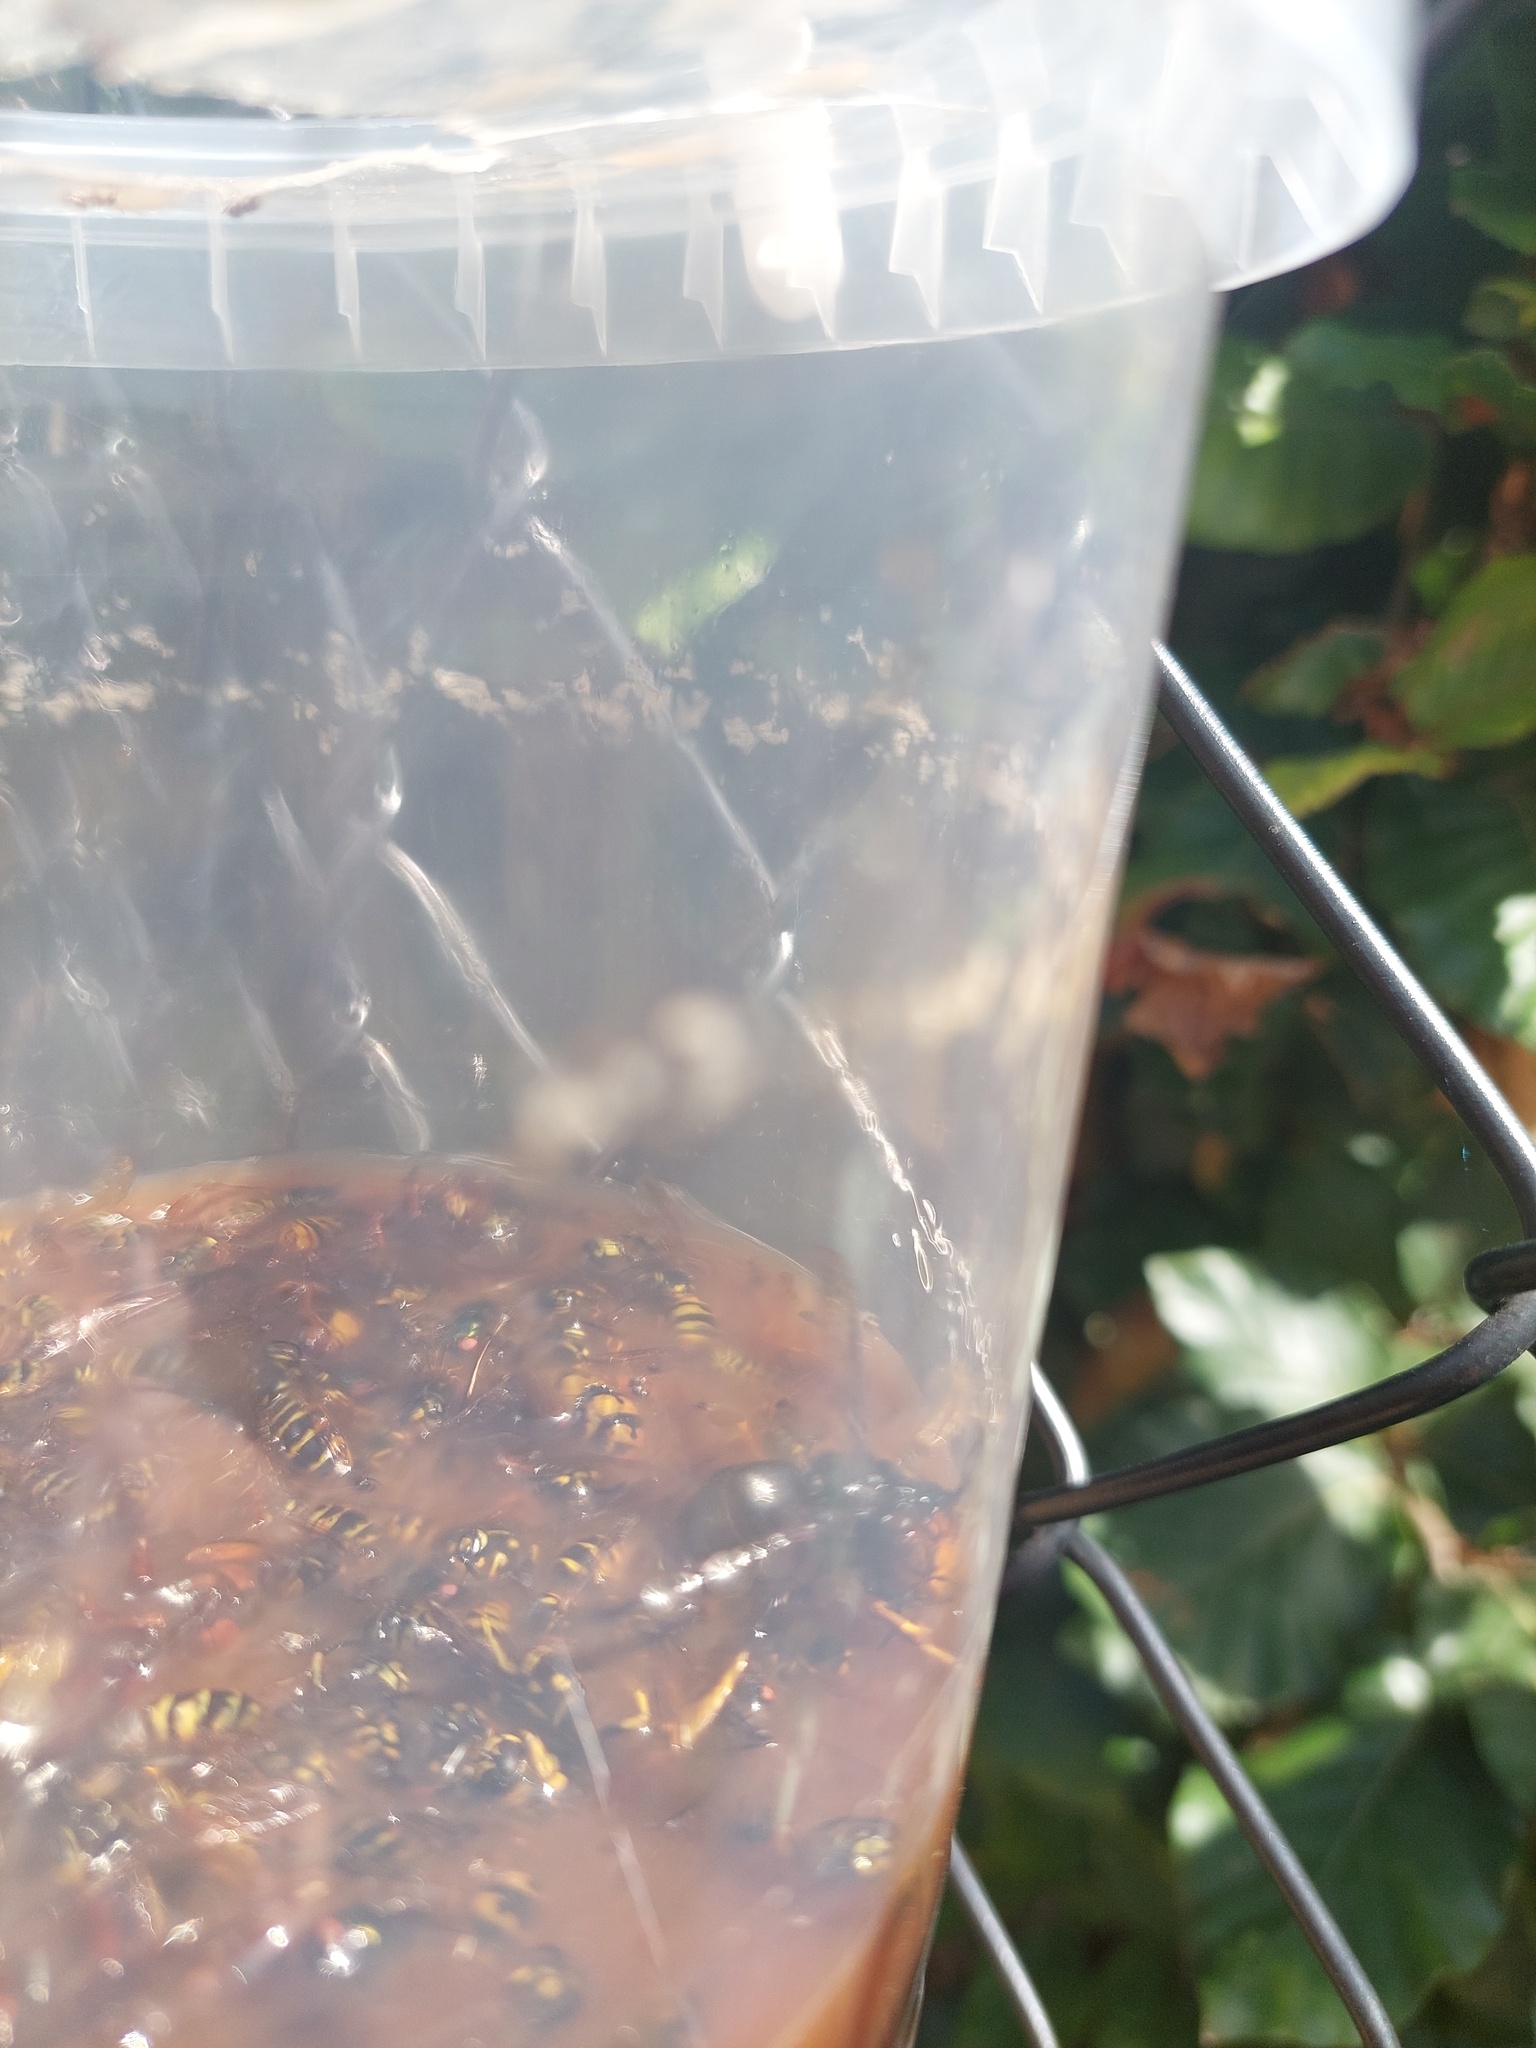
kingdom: Animalia
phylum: Arthropoda
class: Insecta
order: Hymenoptera
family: Vespidae
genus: Vespa
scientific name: Vespa velutina
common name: Asian hornet
